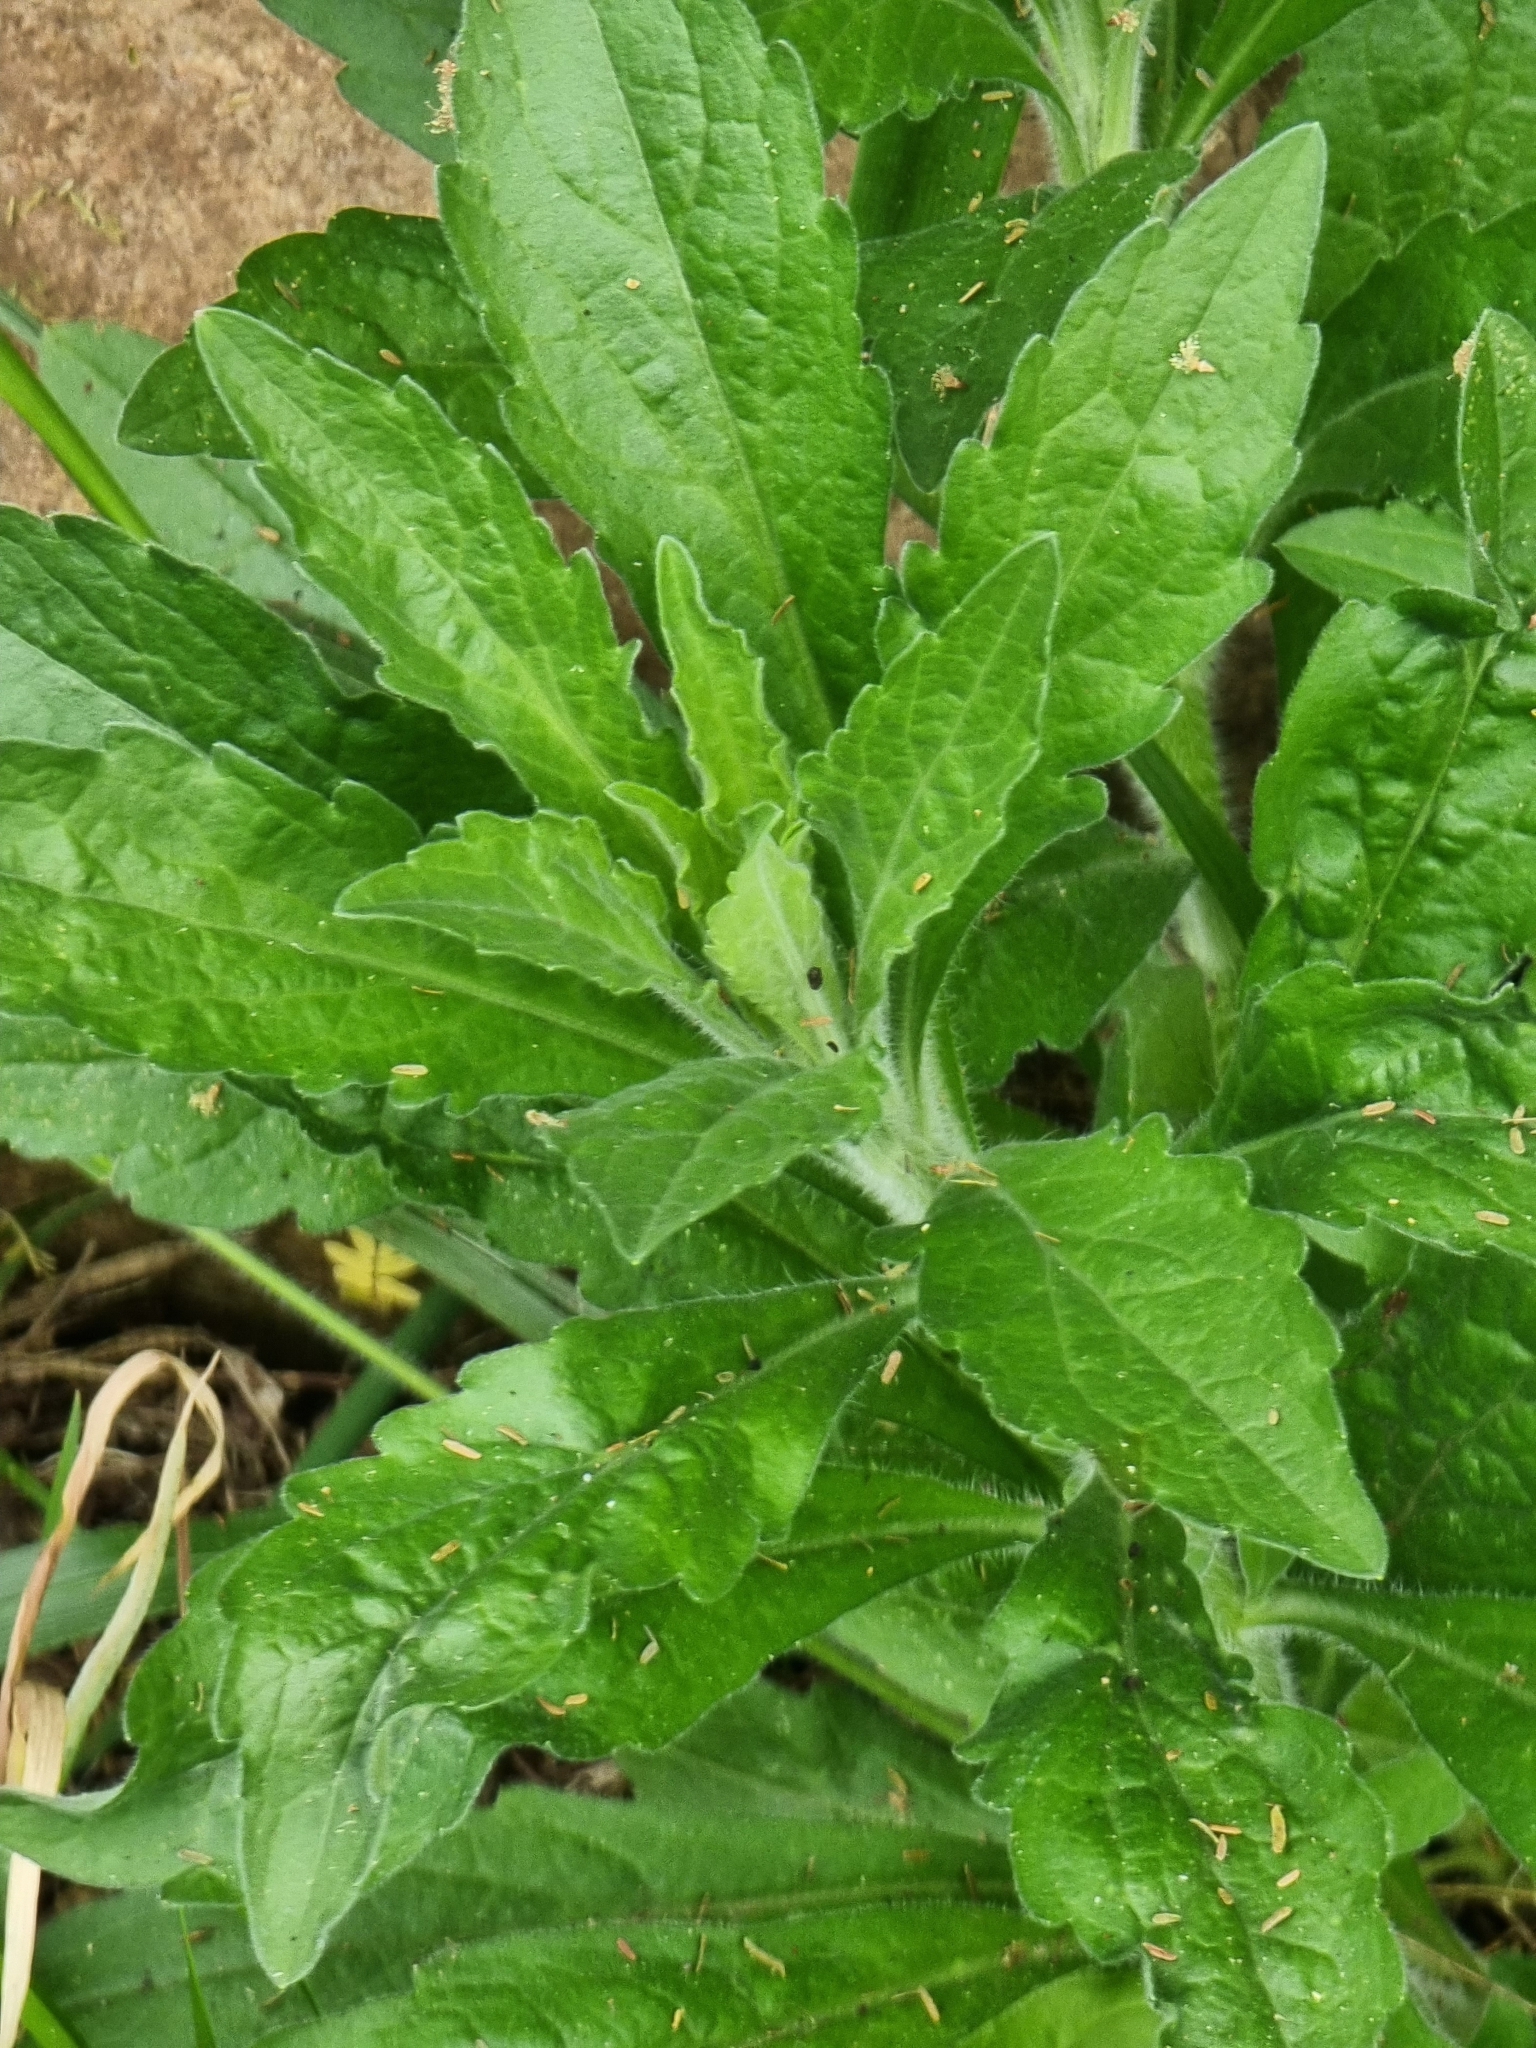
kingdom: Plantae
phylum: Tracheophyta
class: Magnoliopsida
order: Asterales
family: Asteraceae
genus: Erigeron
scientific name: Erigeron sumatrensis
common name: Daisy
